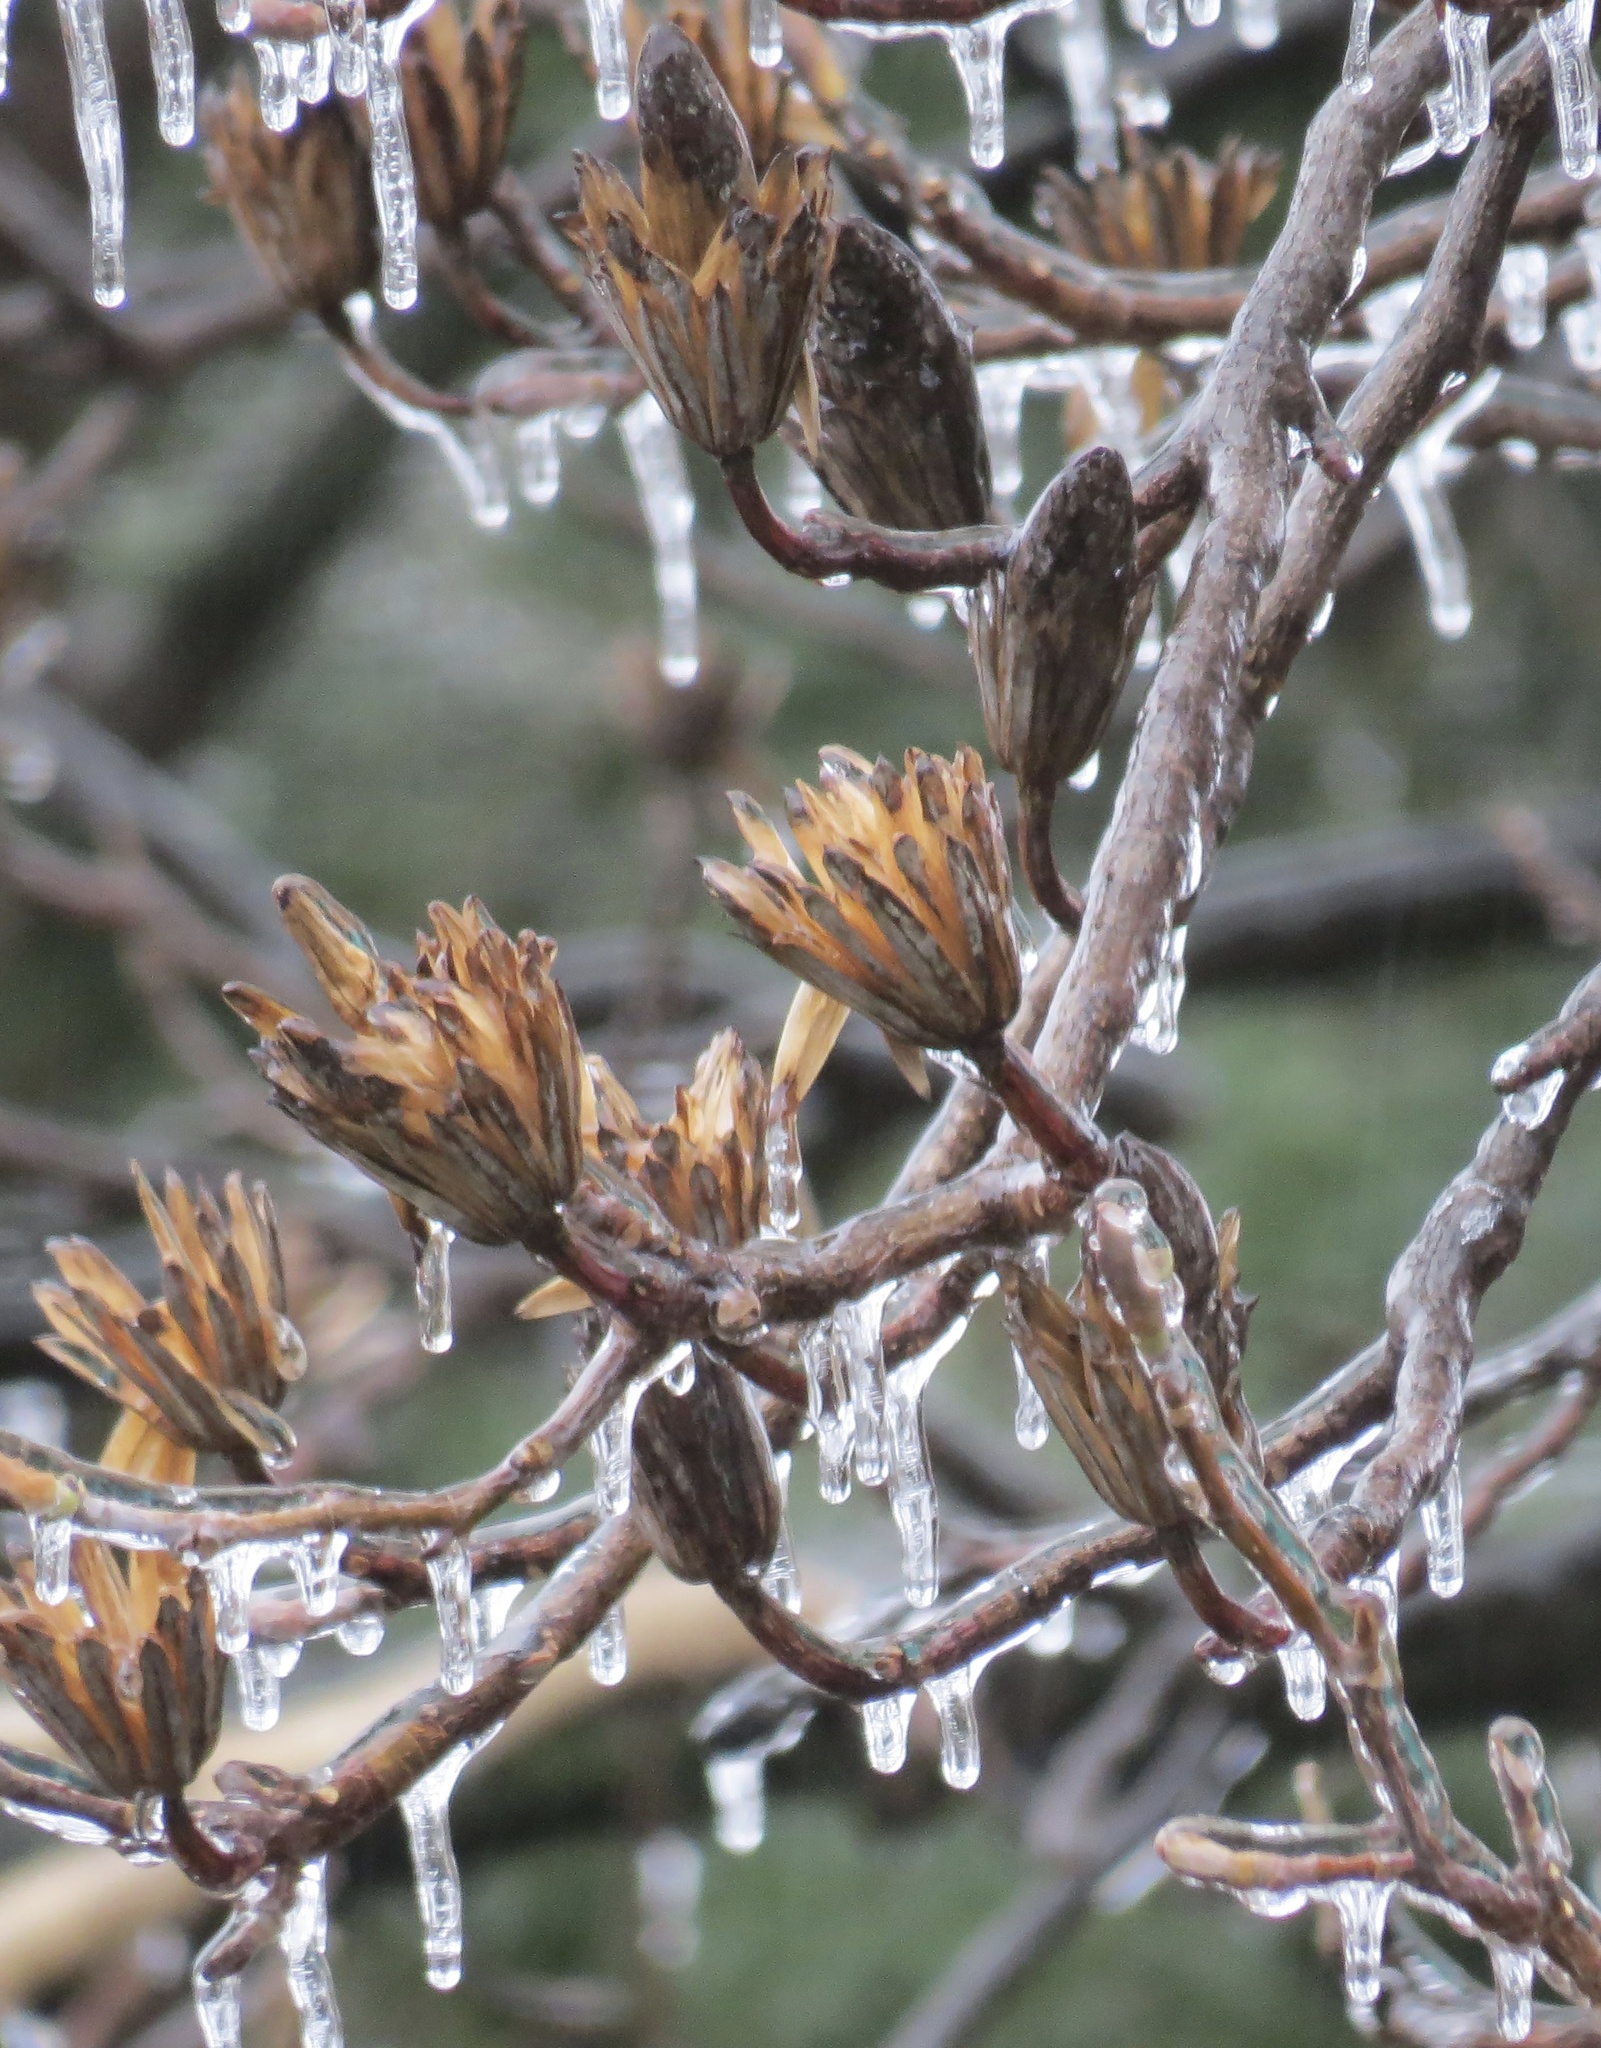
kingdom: Plantae
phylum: Tracheophyta
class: Magnoliopsida
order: Magnoliales
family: Magnoliaceae
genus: Liriodendron
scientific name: Liriodendron tulipifera
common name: Tulip tree
